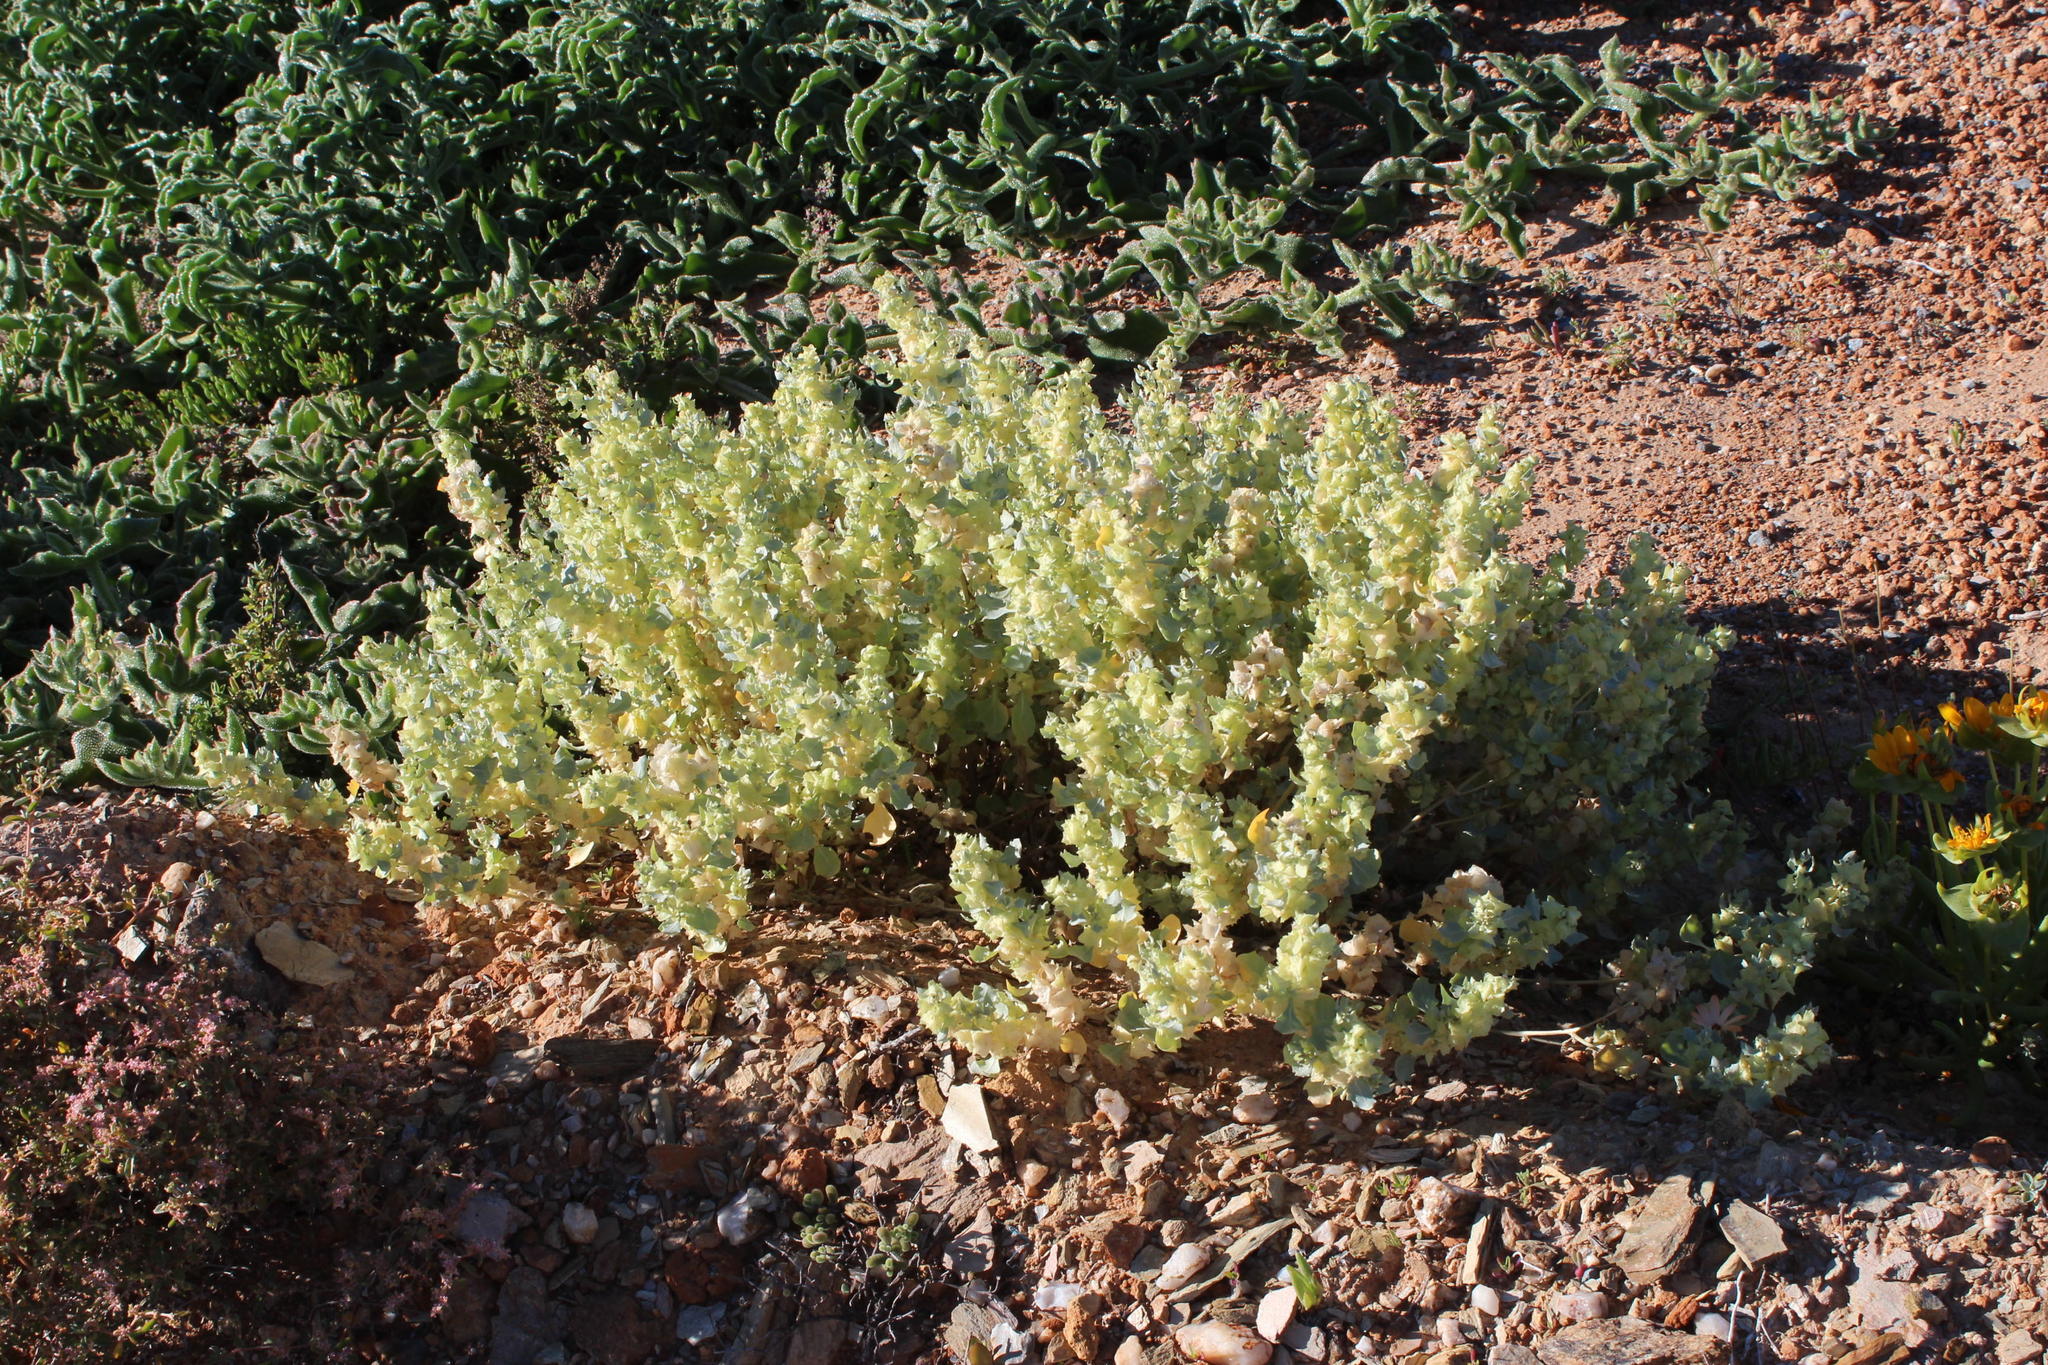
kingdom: Plantae
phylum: Tracheophyta
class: Magnoliopsida
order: Caryophyllales
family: Amaranthaceae
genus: Atriplex
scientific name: Atriplex lindleyi
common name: Lindley's saltbush
